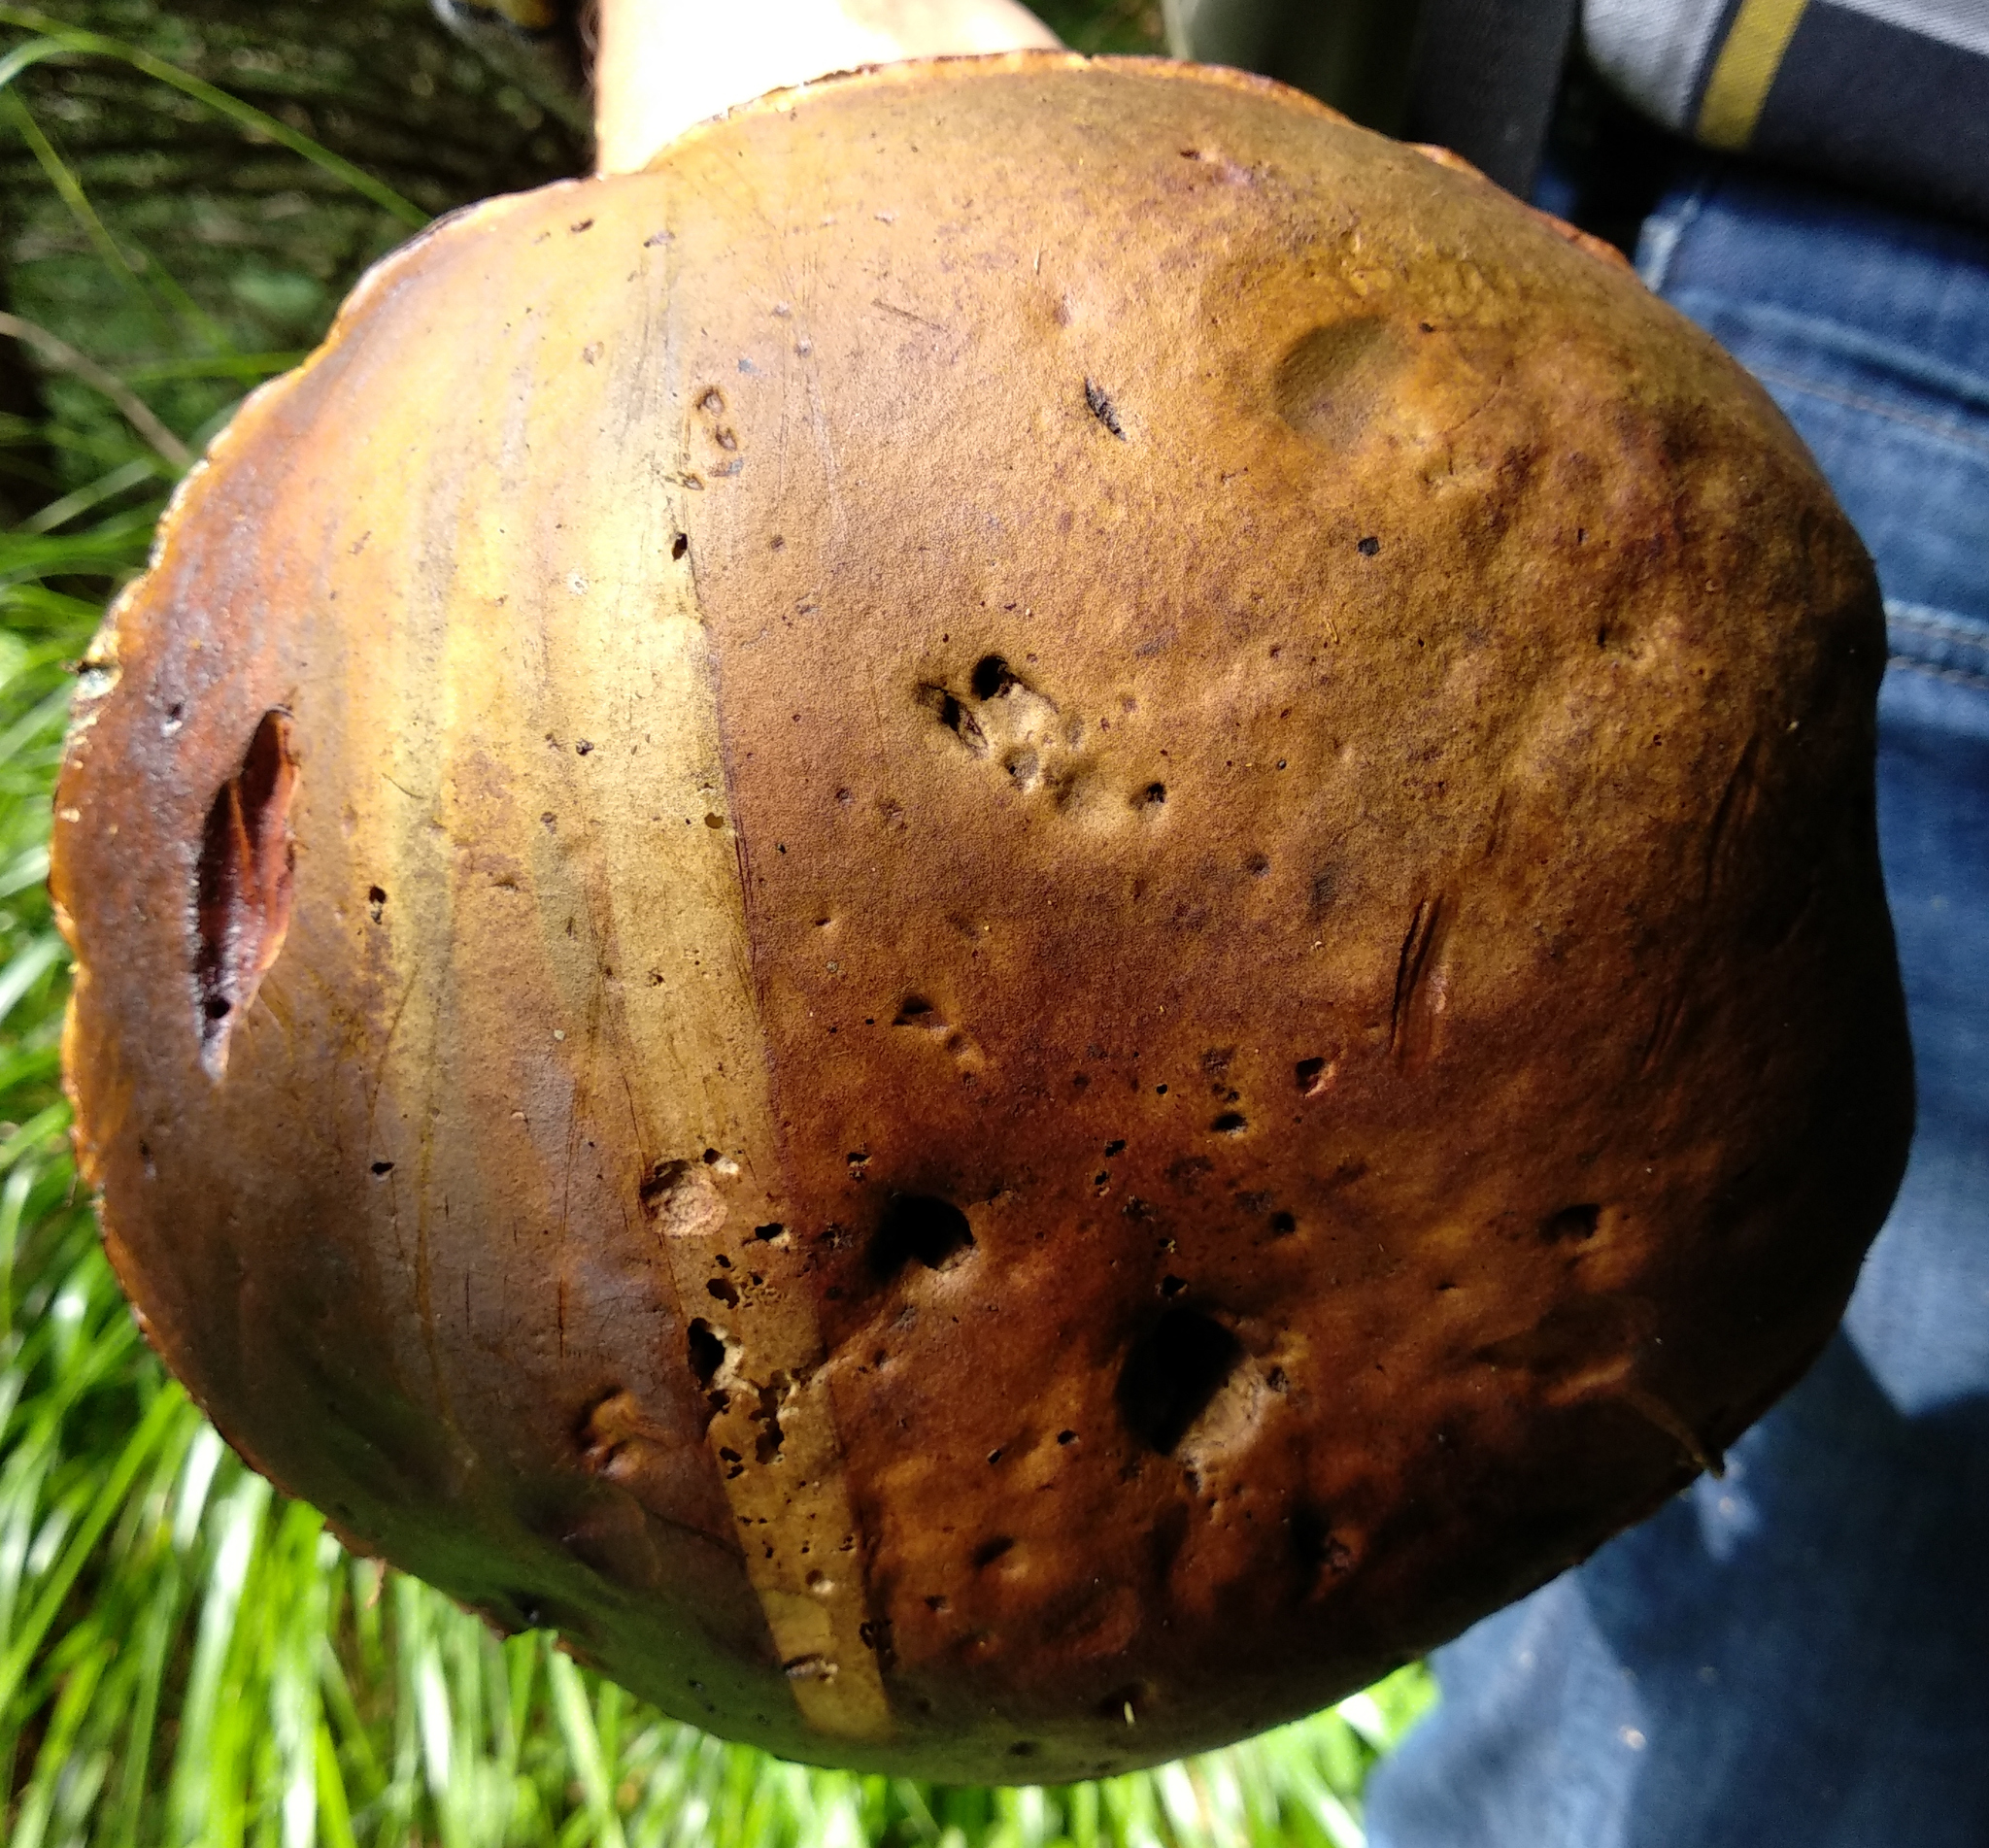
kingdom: Fungi
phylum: Basidiomycota
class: Agaricomycetes
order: Boletales
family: Boletaceae
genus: Suillellus
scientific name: Suillellus luridus
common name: Lurid bolete
